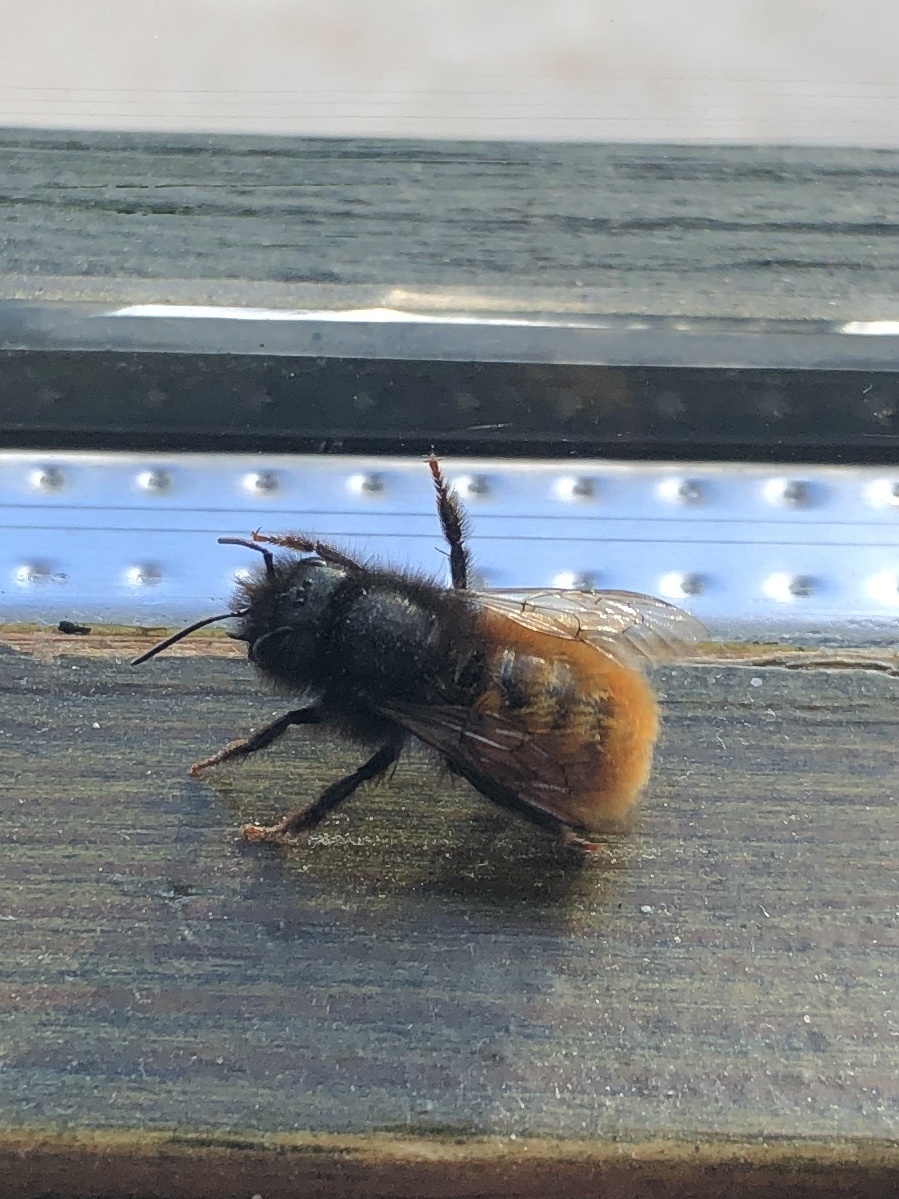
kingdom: Animalia
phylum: Arthropoda
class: Insecta
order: Hymenoptera
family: Megachilidae
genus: Osmia
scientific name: Osmia cornuta
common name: Mason bee
